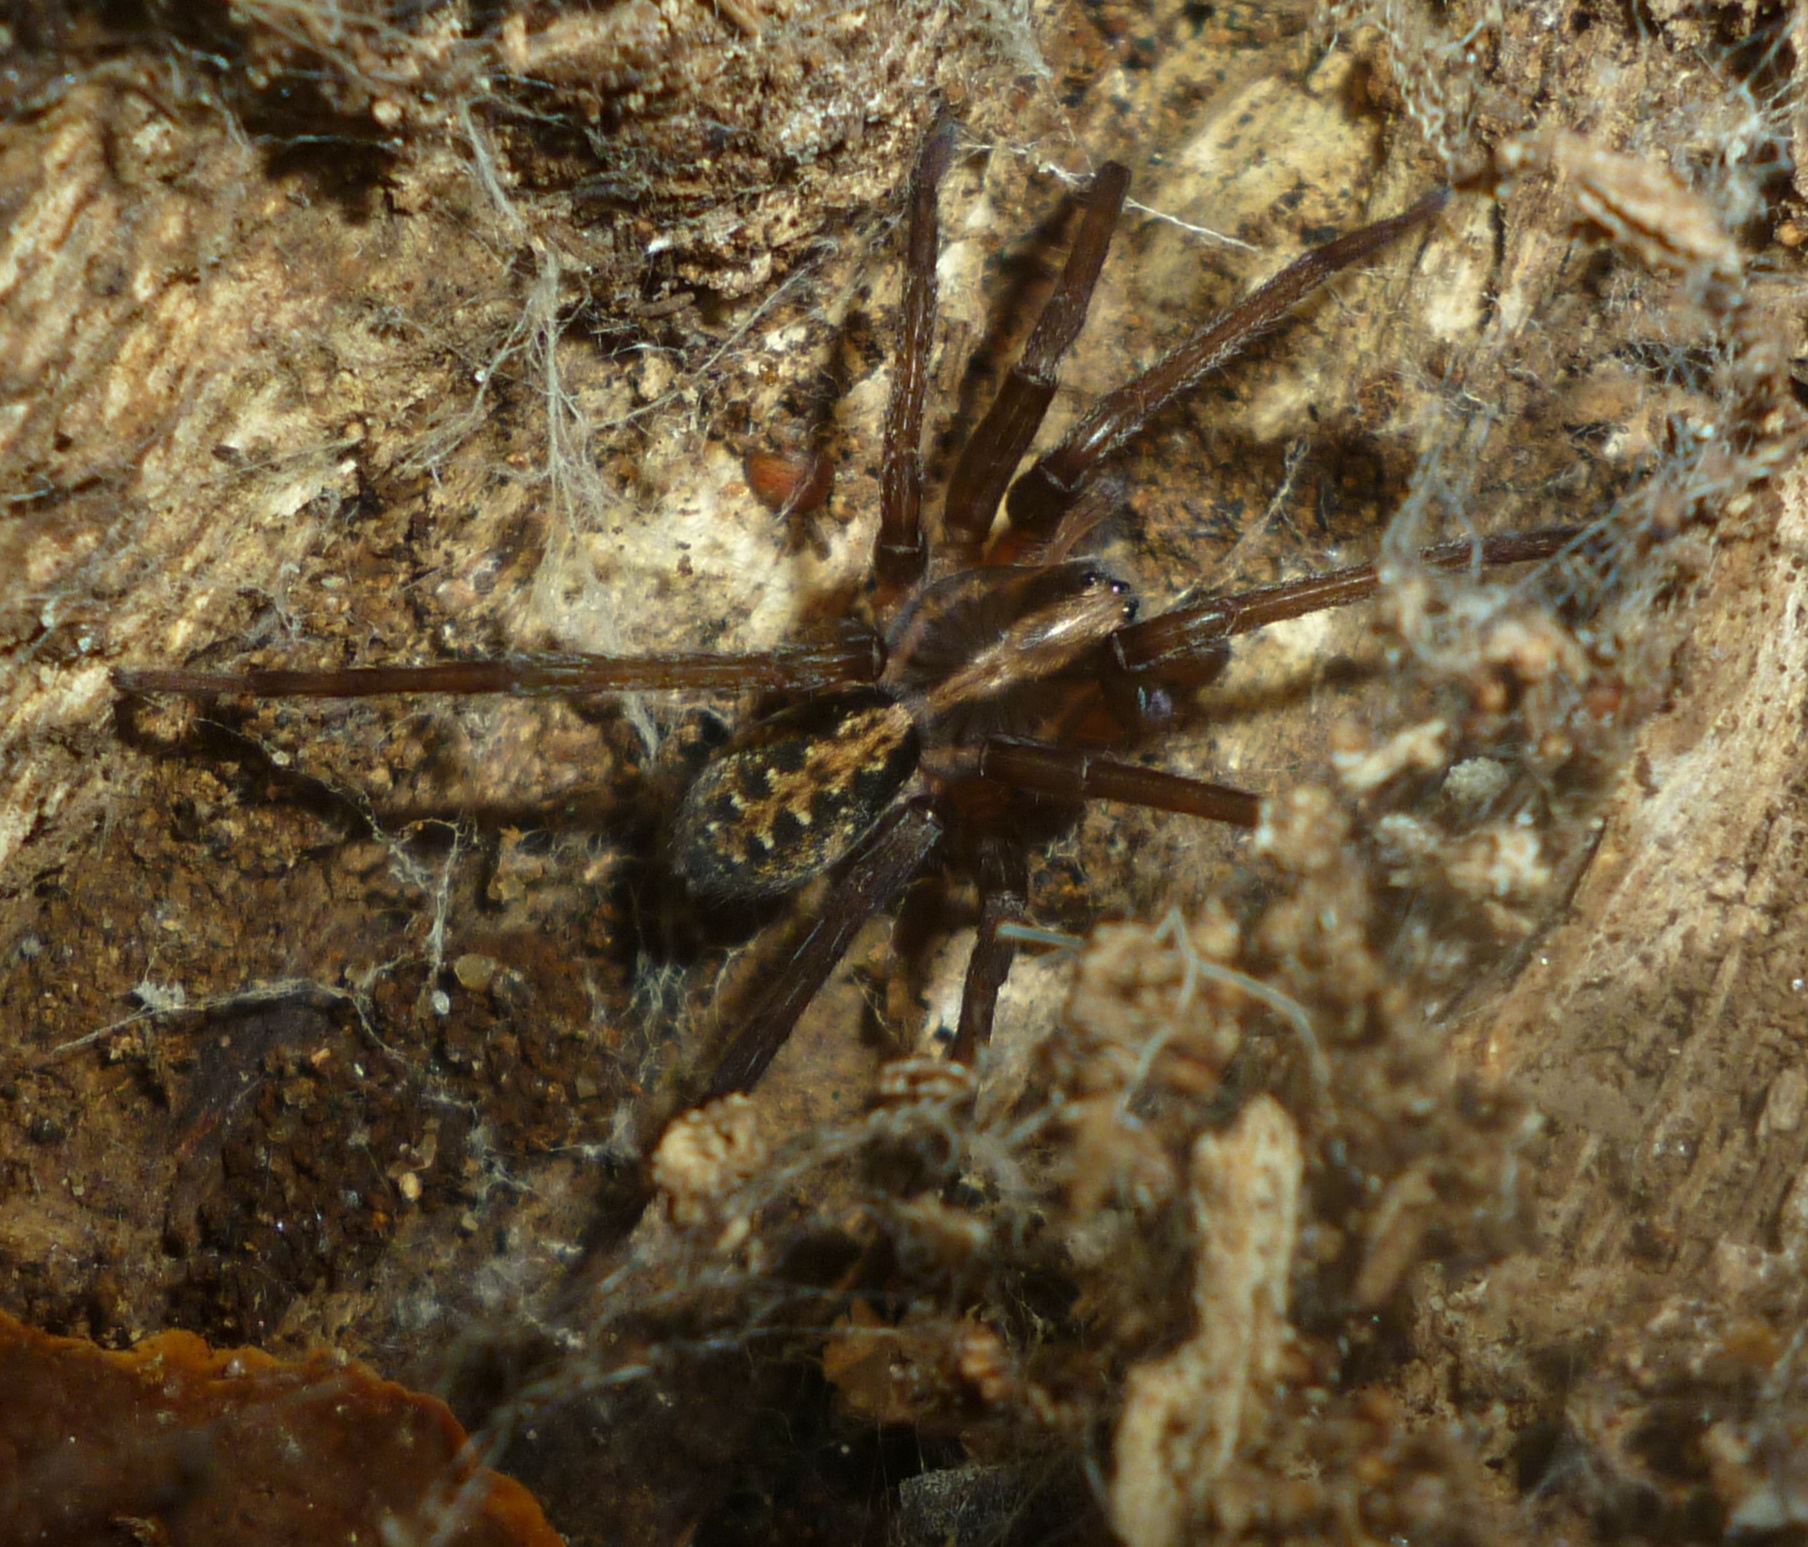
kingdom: Animalia
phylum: Arthropoda
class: Arachnida
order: Araneae
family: Ctenidae
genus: Ctenus
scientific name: Ctenus captiosus
